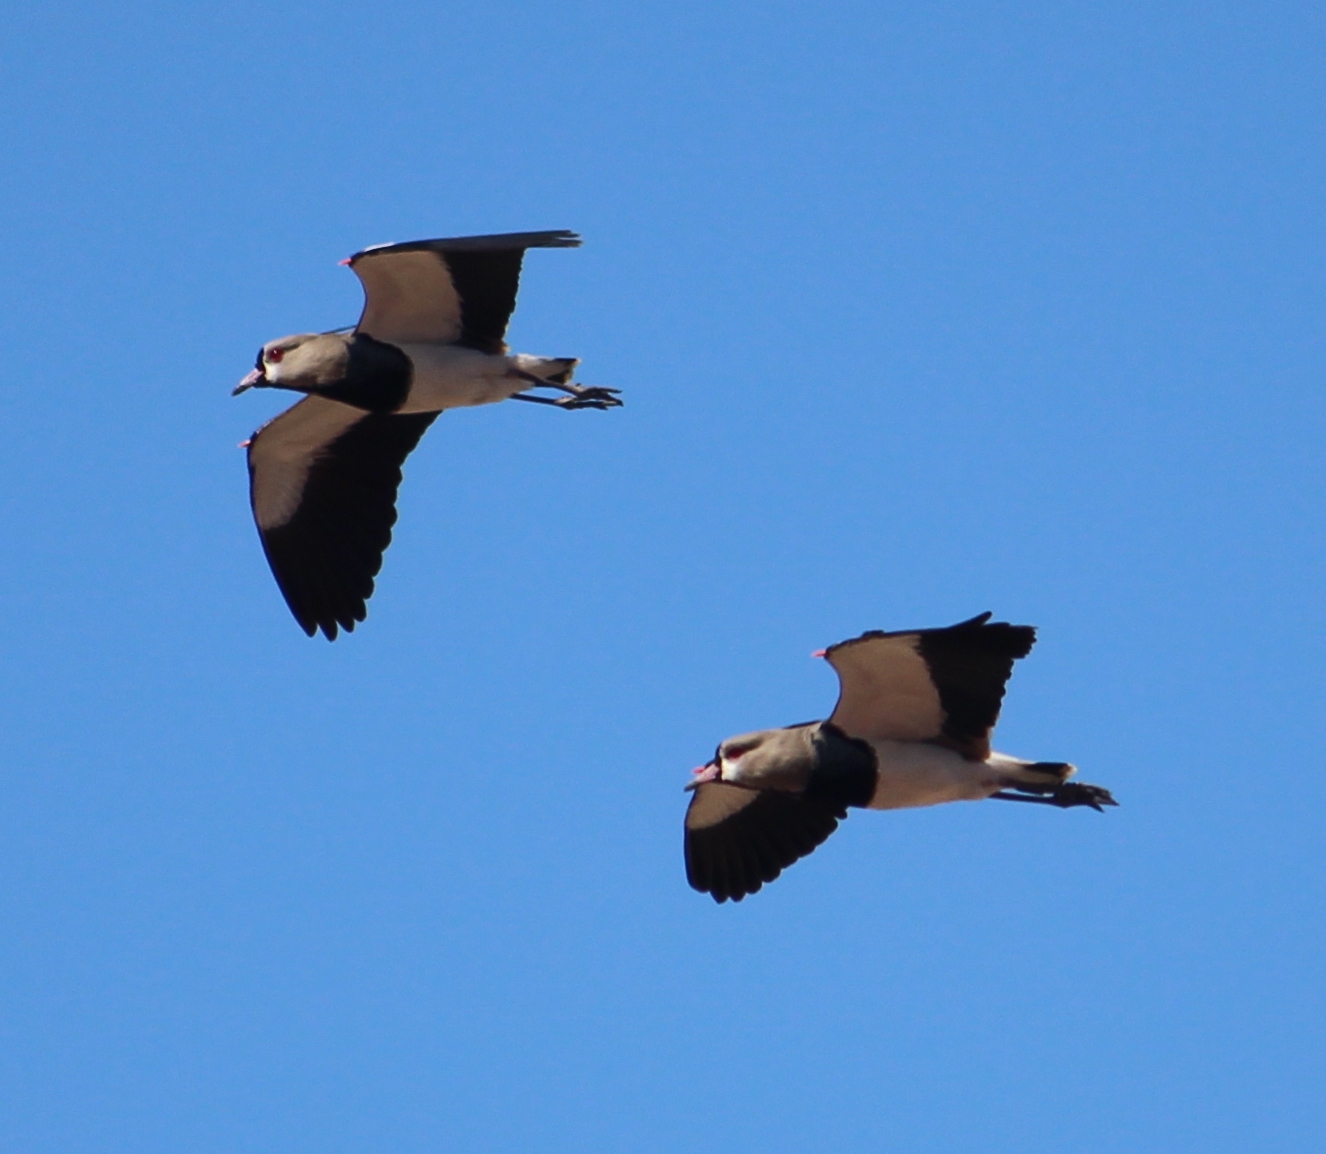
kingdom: Animalia
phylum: Chordata
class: Aves
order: Charadriiformes
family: Charadriidae
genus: Vanellus
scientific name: Vanellus chilensis
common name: Southern lapwing
